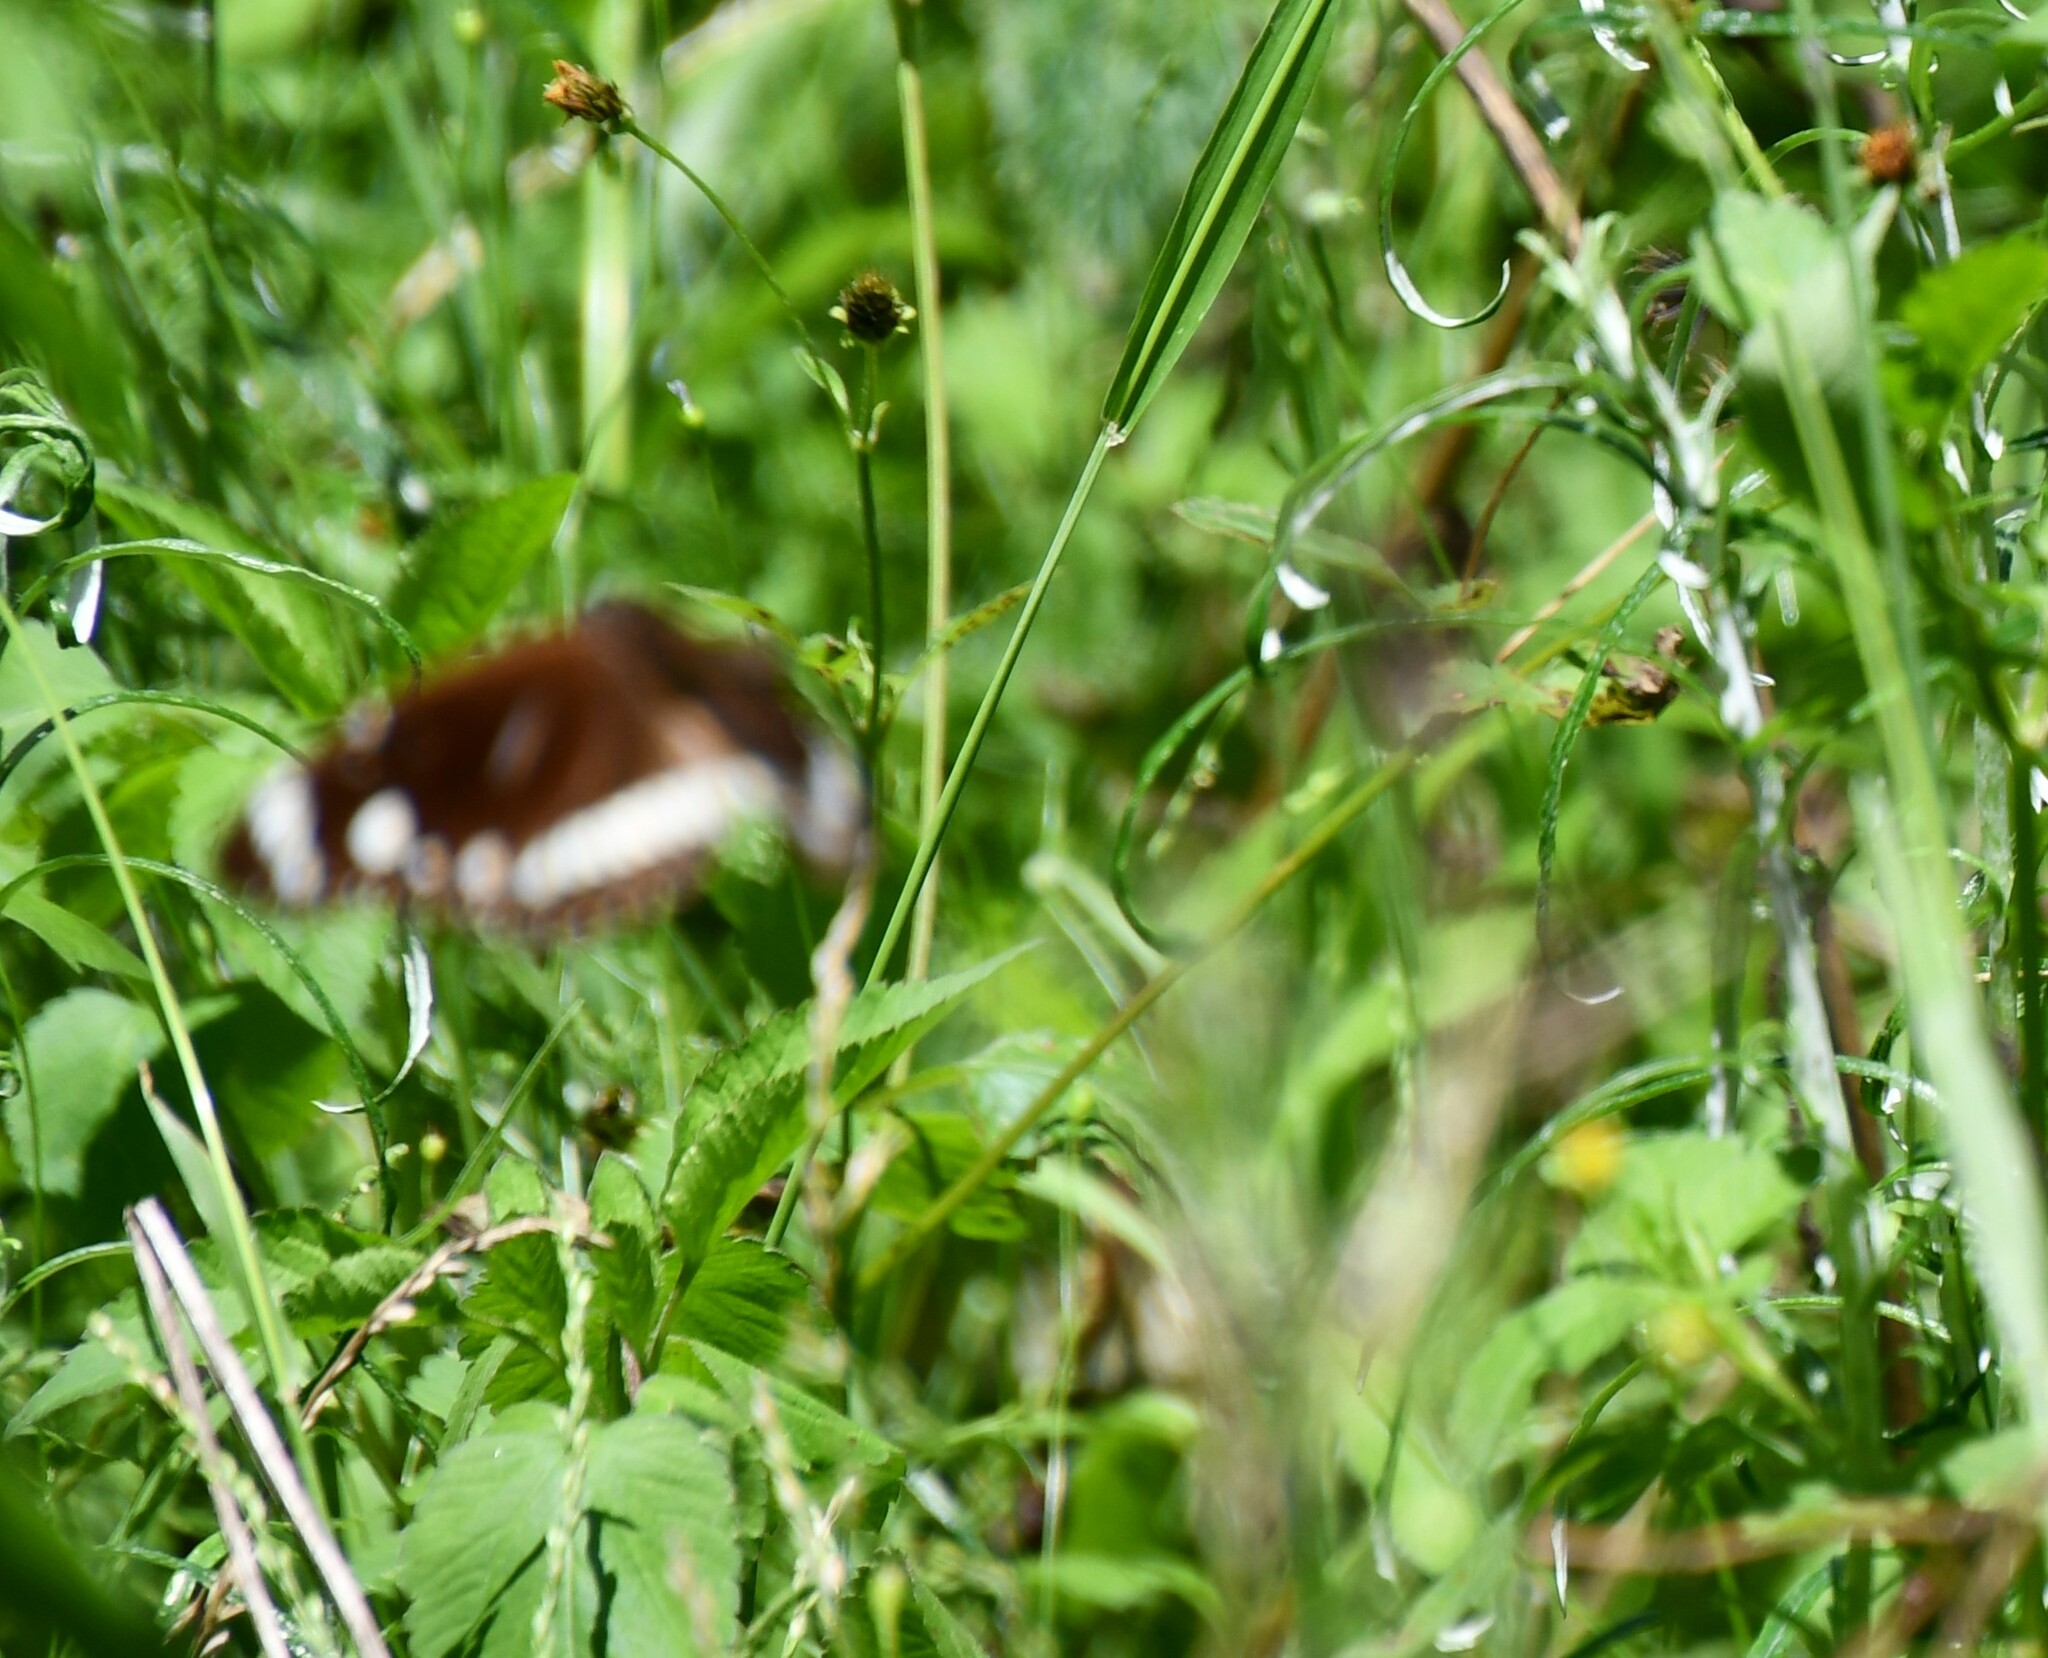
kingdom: Animalia
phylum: Arthropoda
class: Insecta
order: Lepidoptera
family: Nymphalidae
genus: Euploea
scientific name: Euploea core
